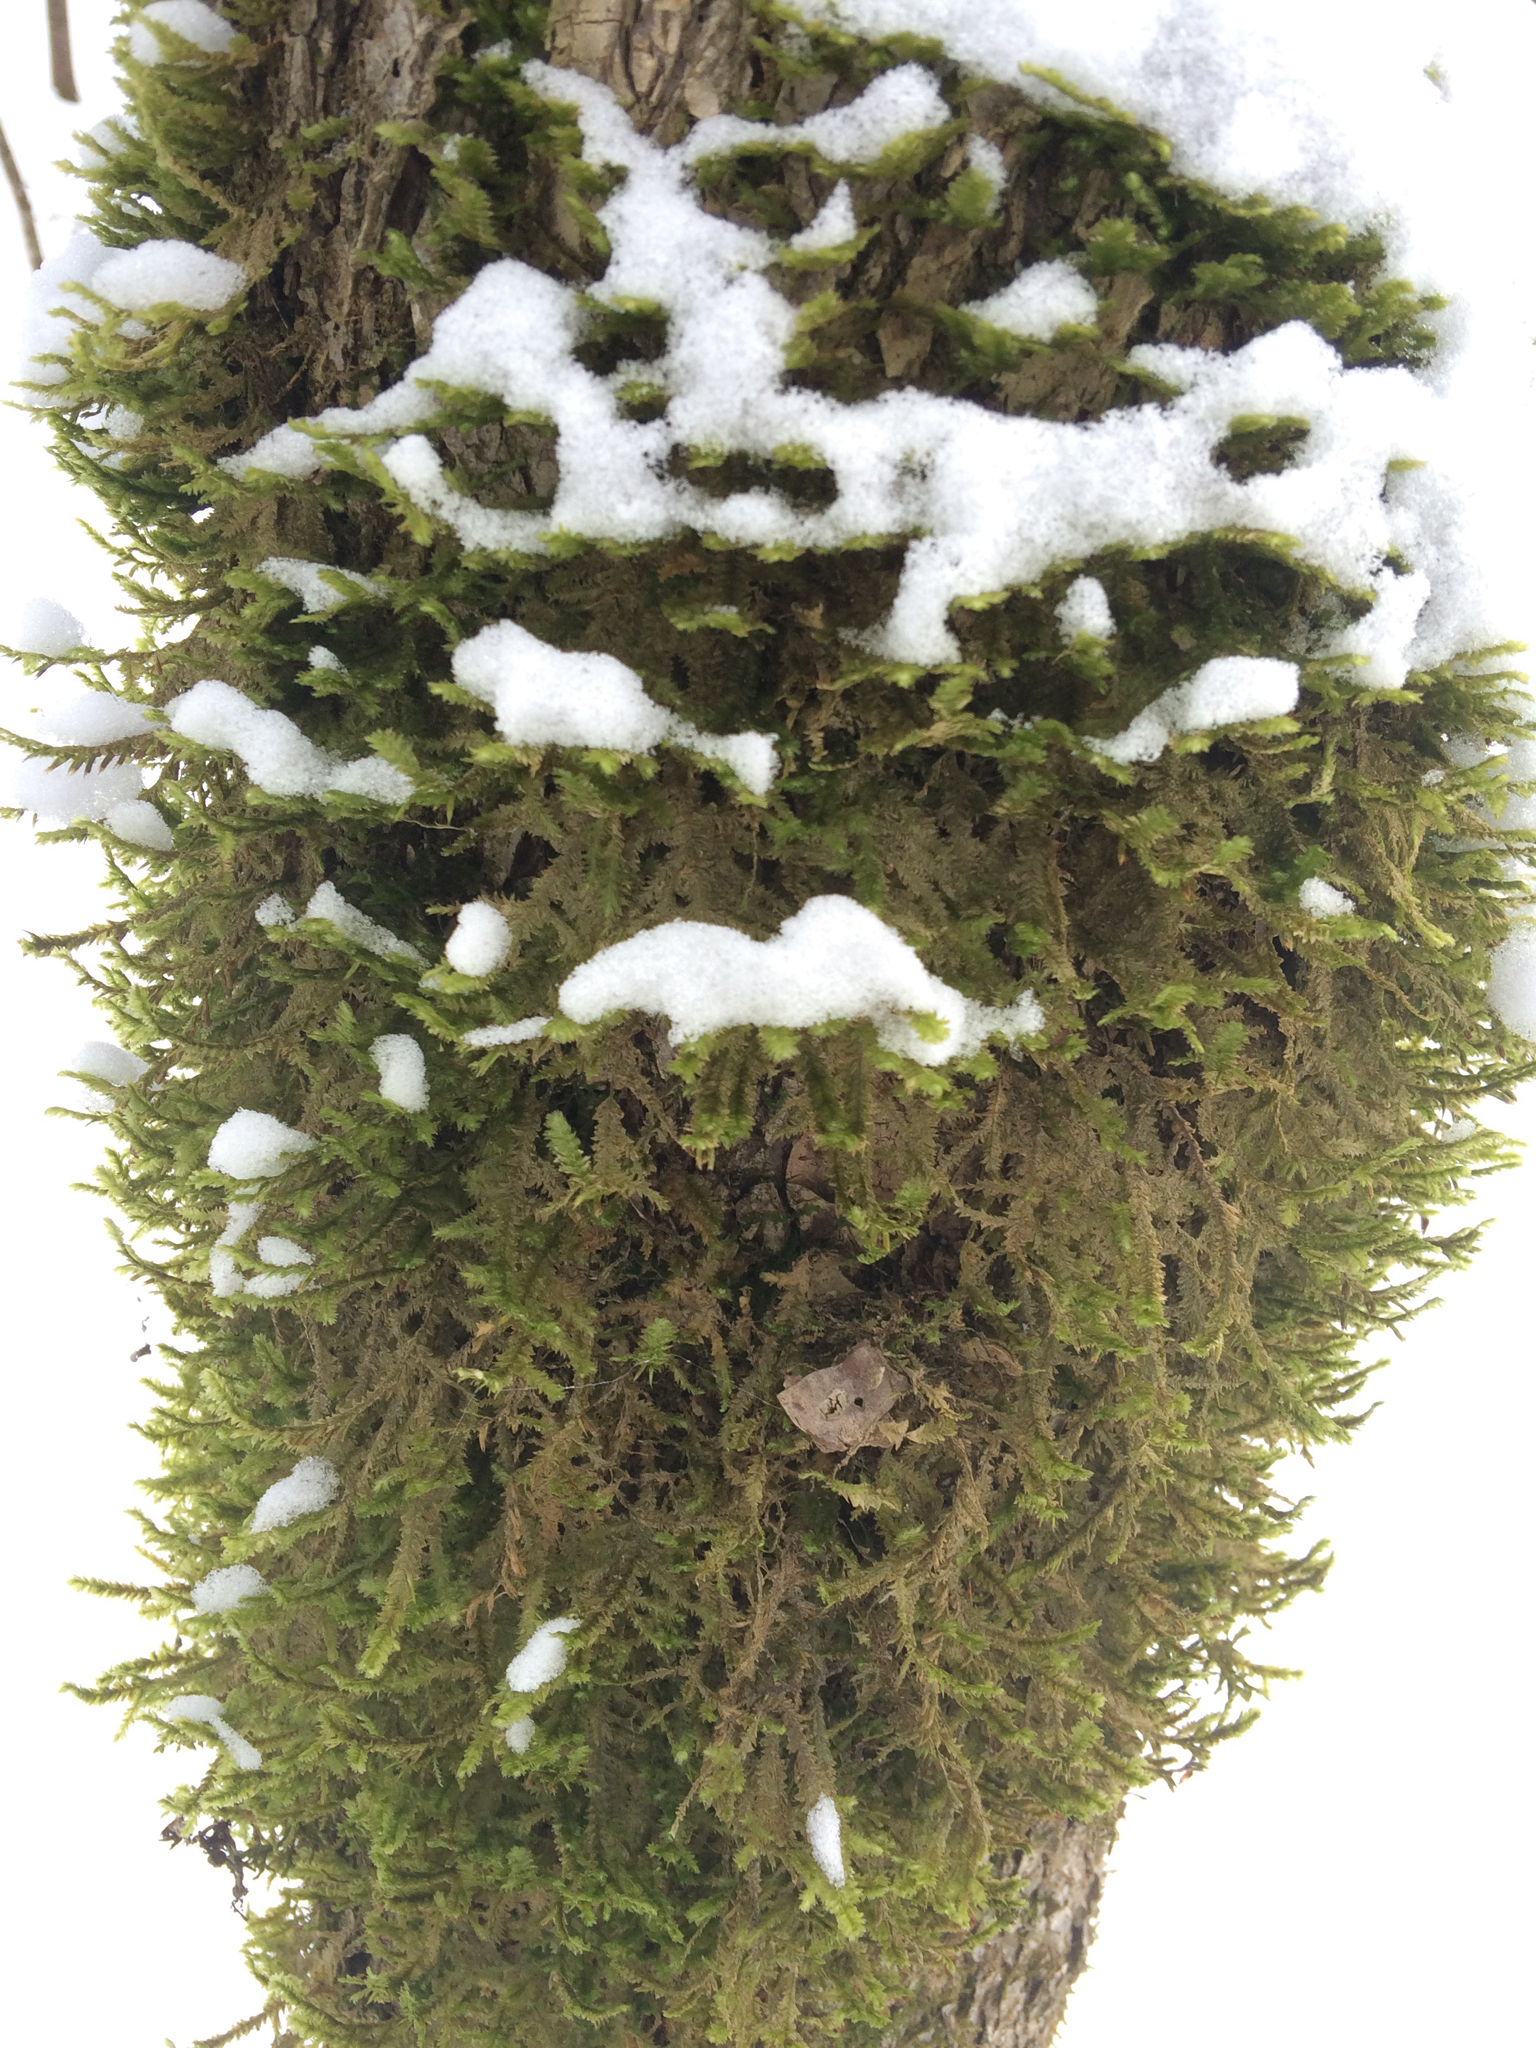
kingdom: Plantae
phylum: Bryophyta
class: Bryopsida
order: Hypnales
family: Neckeraceae
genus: Neckera
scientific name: Neckera pennata
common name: Feathery neckera
